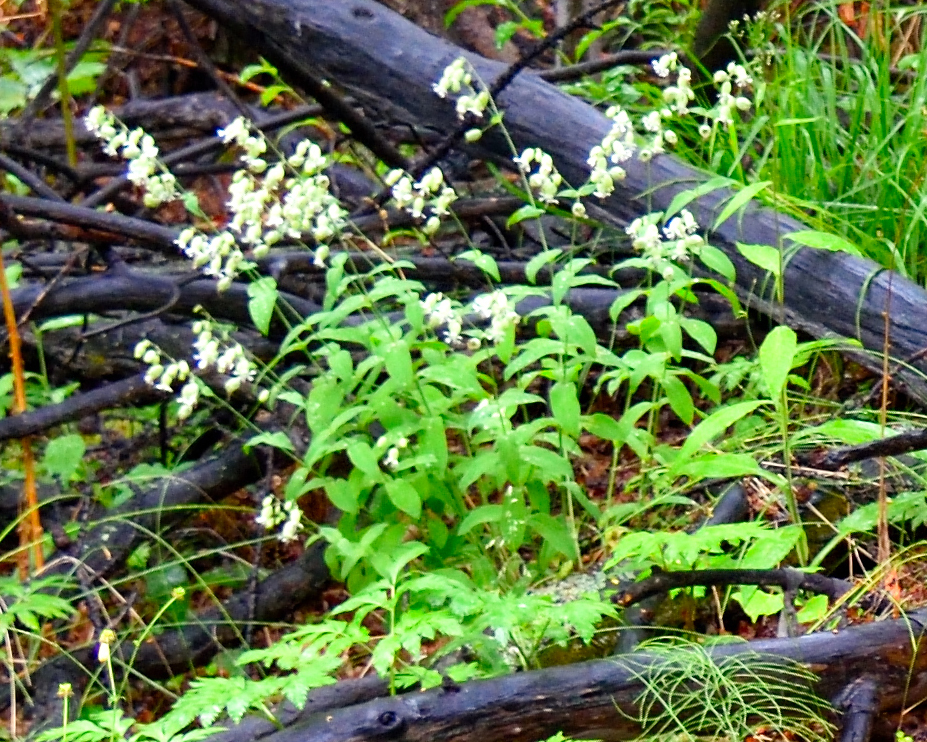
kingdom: Plantae
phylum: Tracheophyta
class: Magnoliopsida
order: Caryophyllales
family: Caryophyllaceae
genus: Silene
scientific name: Silene vulgaris
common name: Bladder campion
